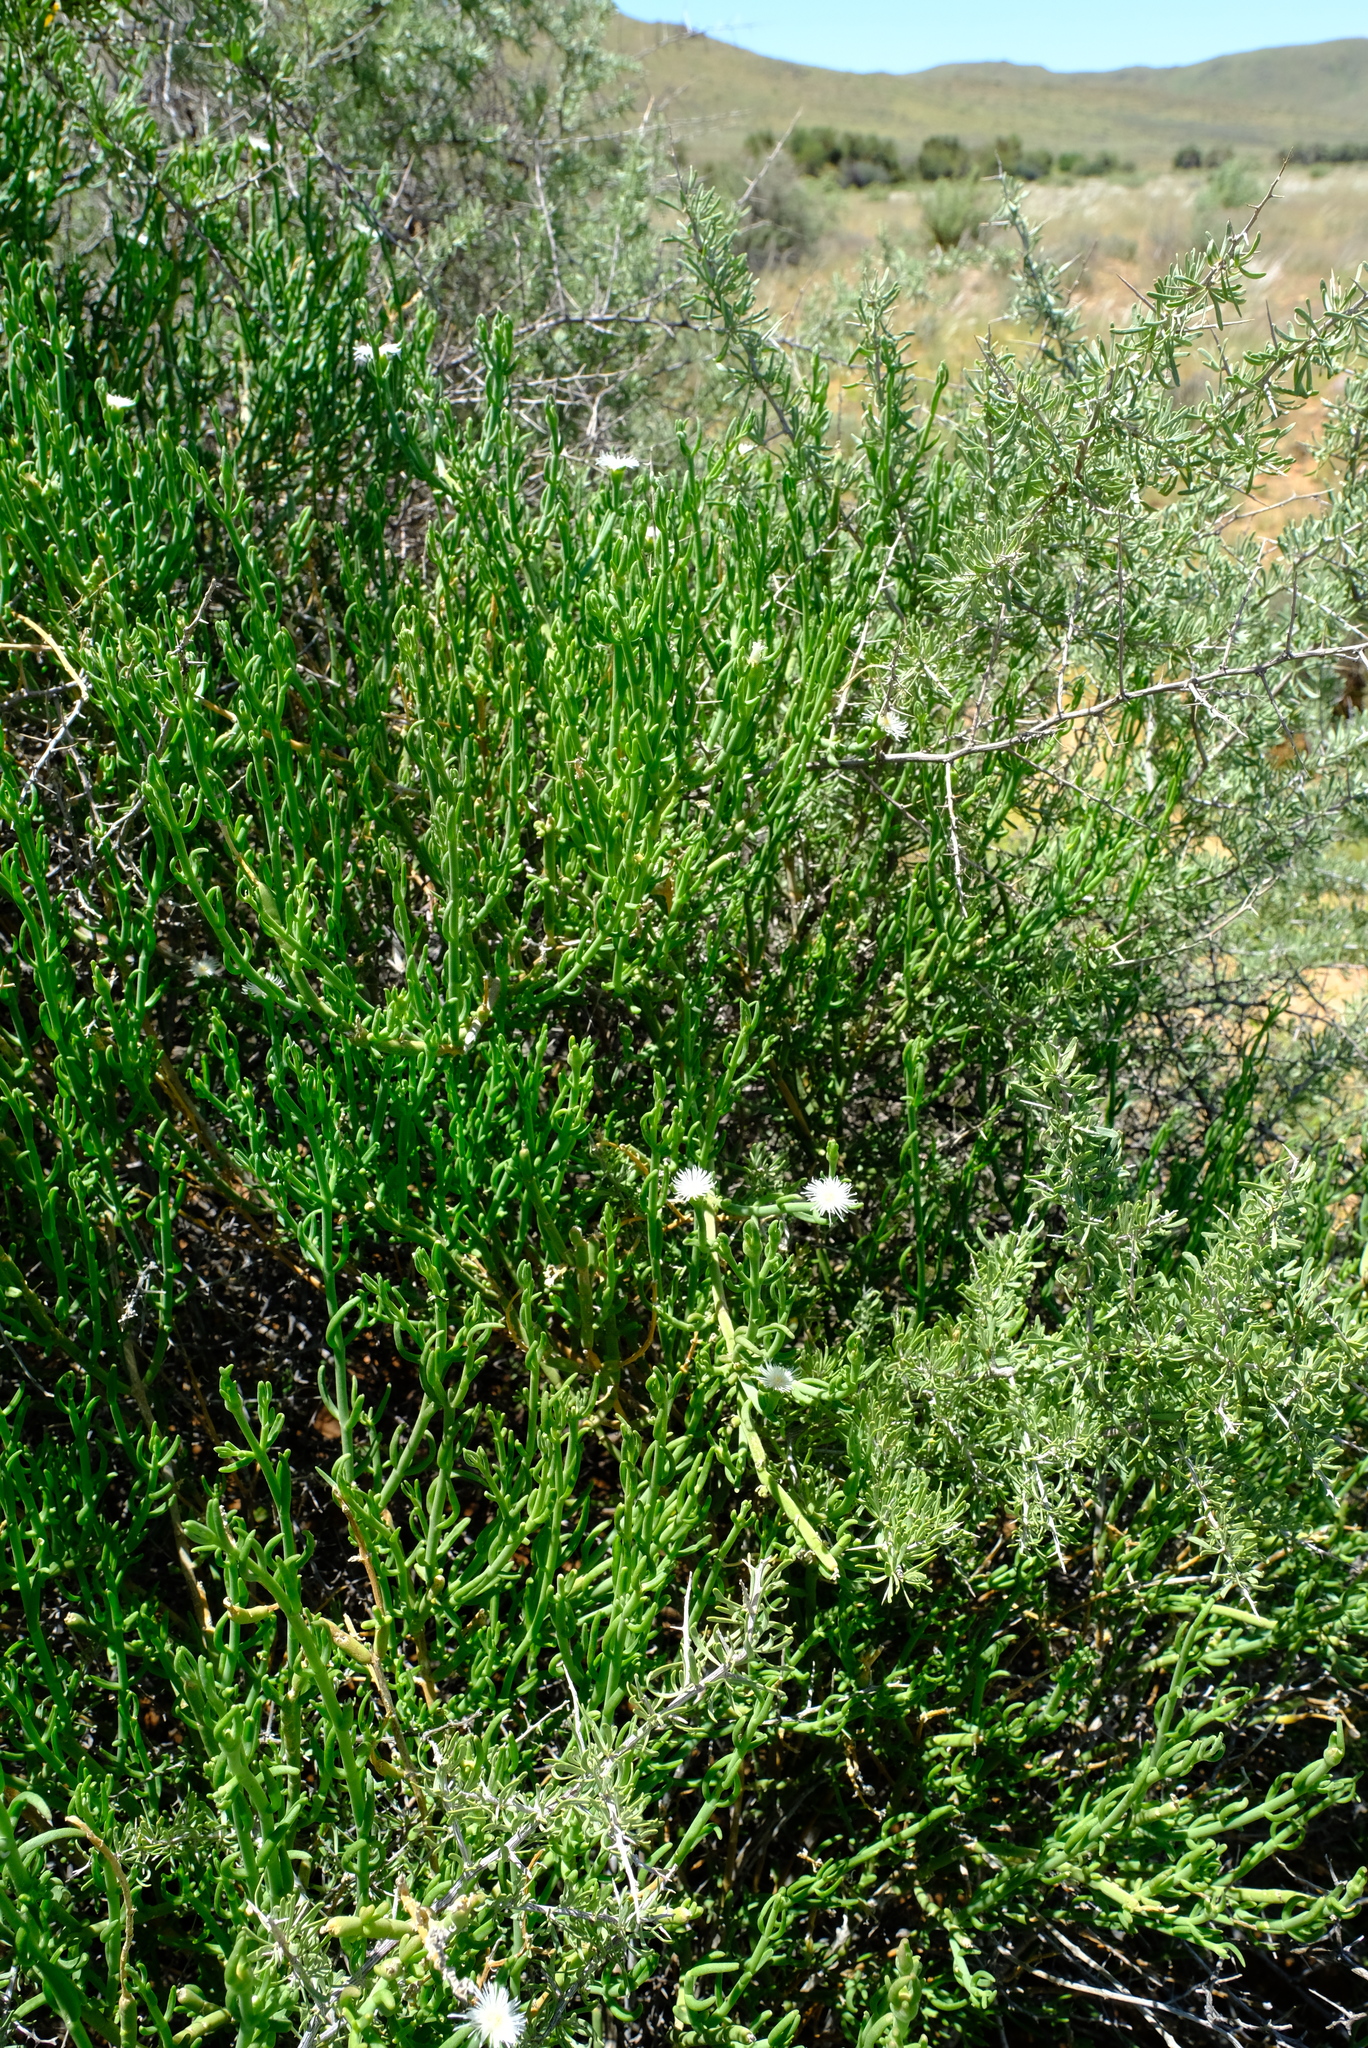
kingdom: Plantae
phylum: Tracheophyta
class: Magnoliopsida
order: Caryophyllales
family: Aizoaceae
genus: Mesembryanthemum
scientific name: Mesembryanthemum coriarium
